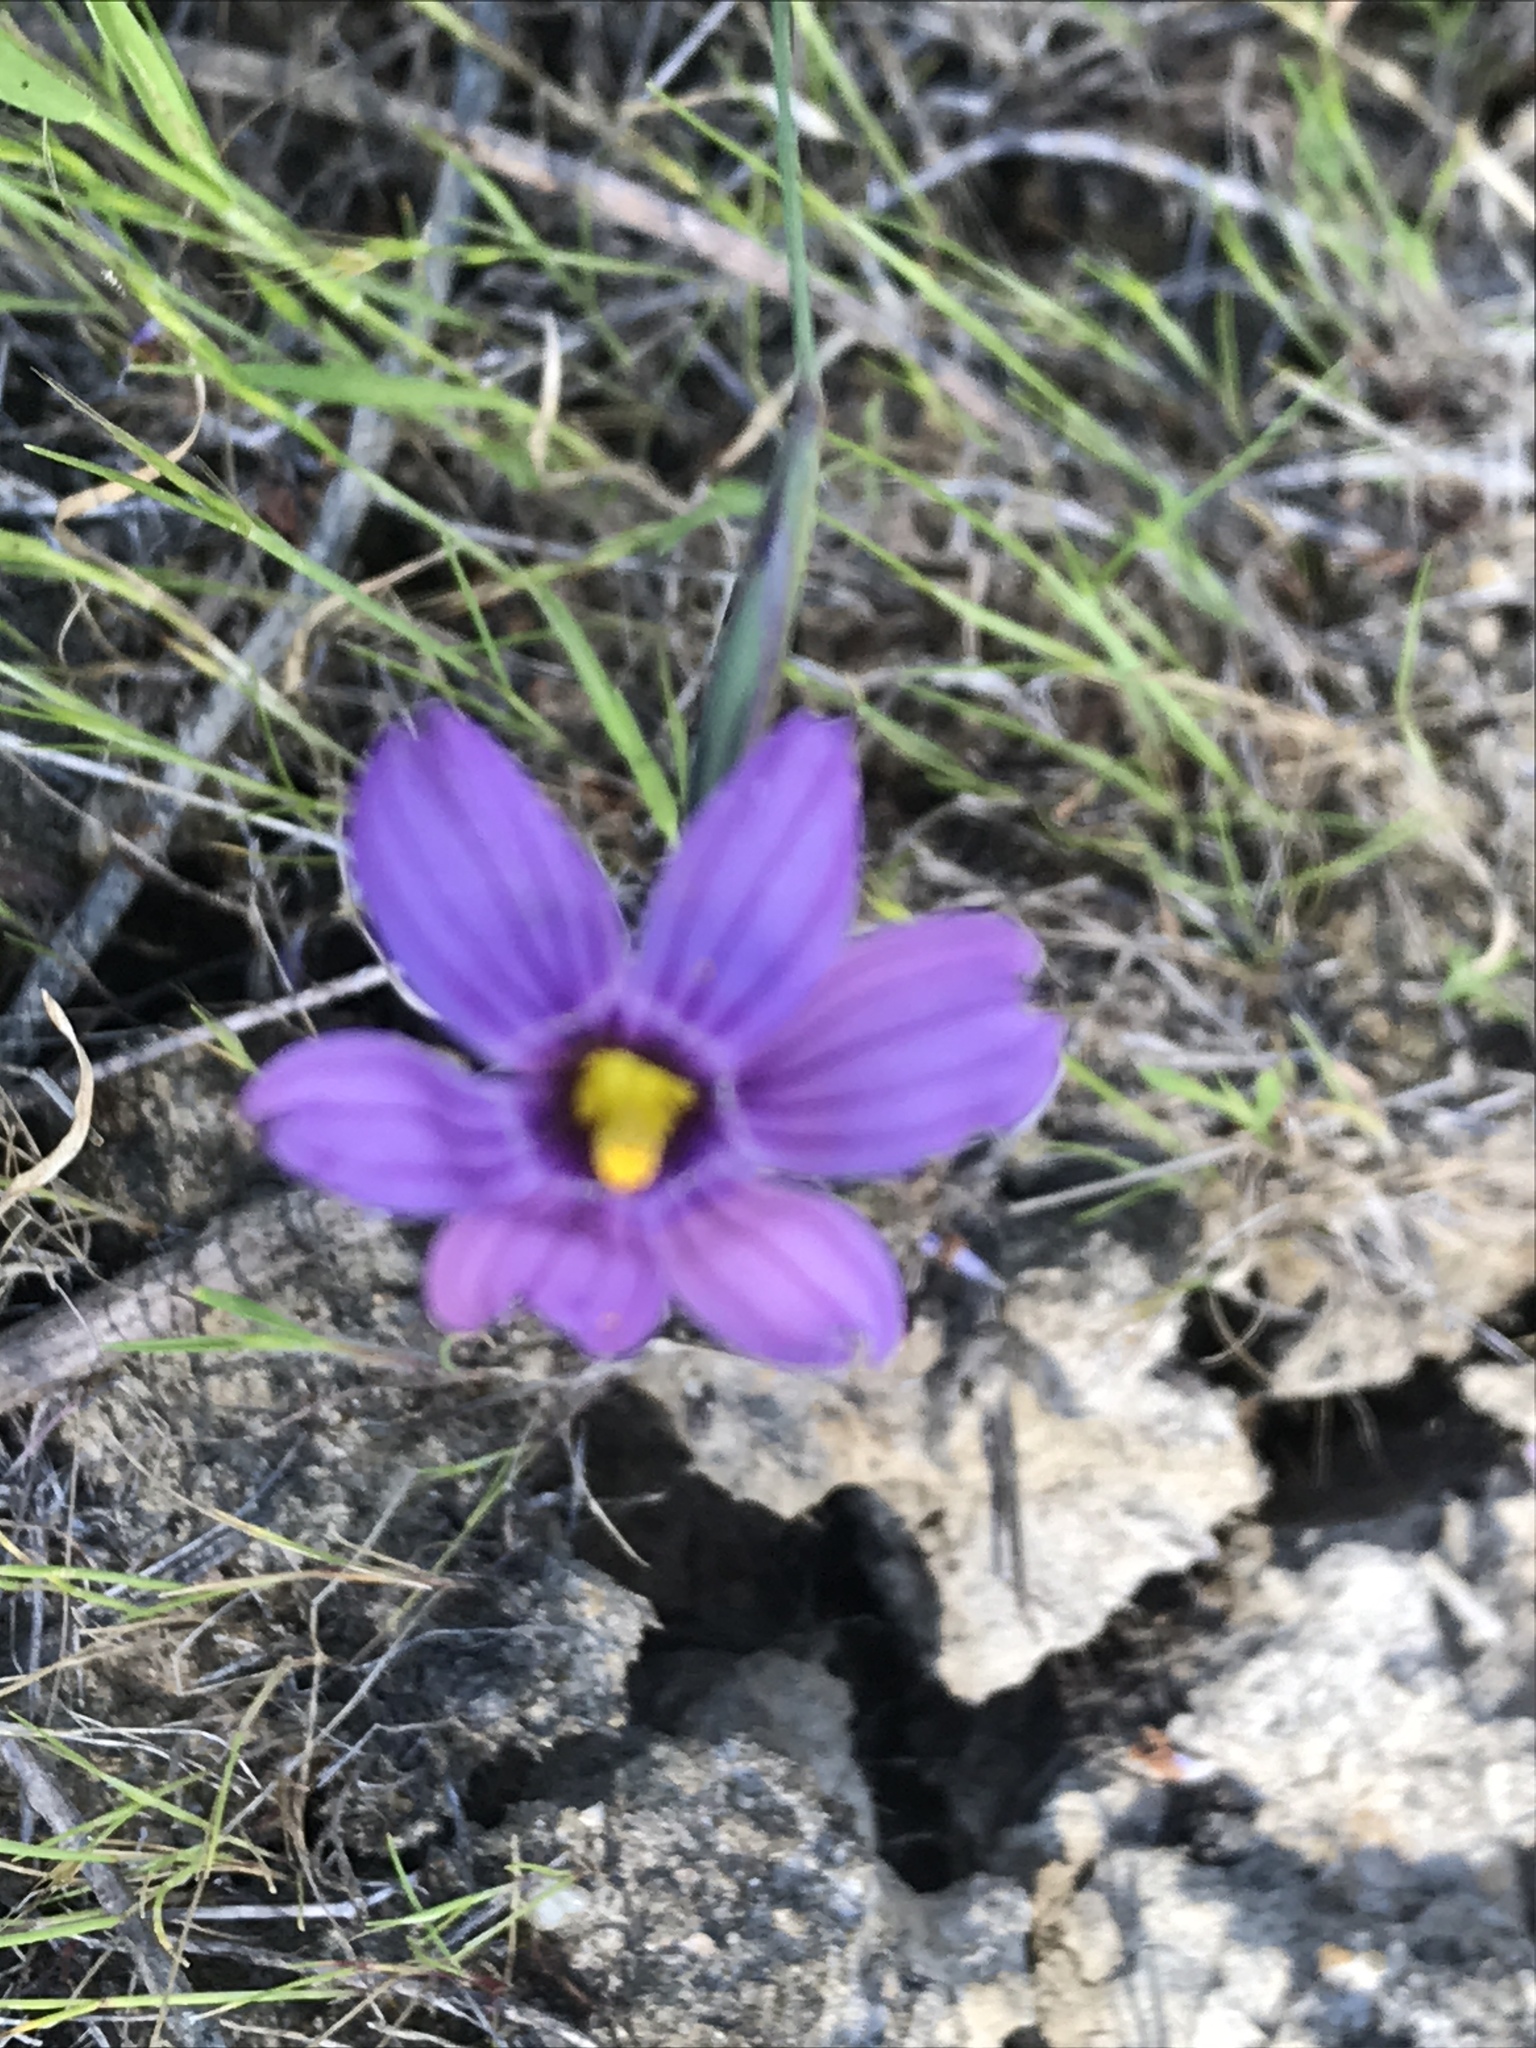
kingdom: Plantae
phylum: Tracheophyta
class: Liliopsida
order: Asparagales
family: Iridaceae
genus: Sisyrinchium
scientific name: Sisyrinchium bellum
